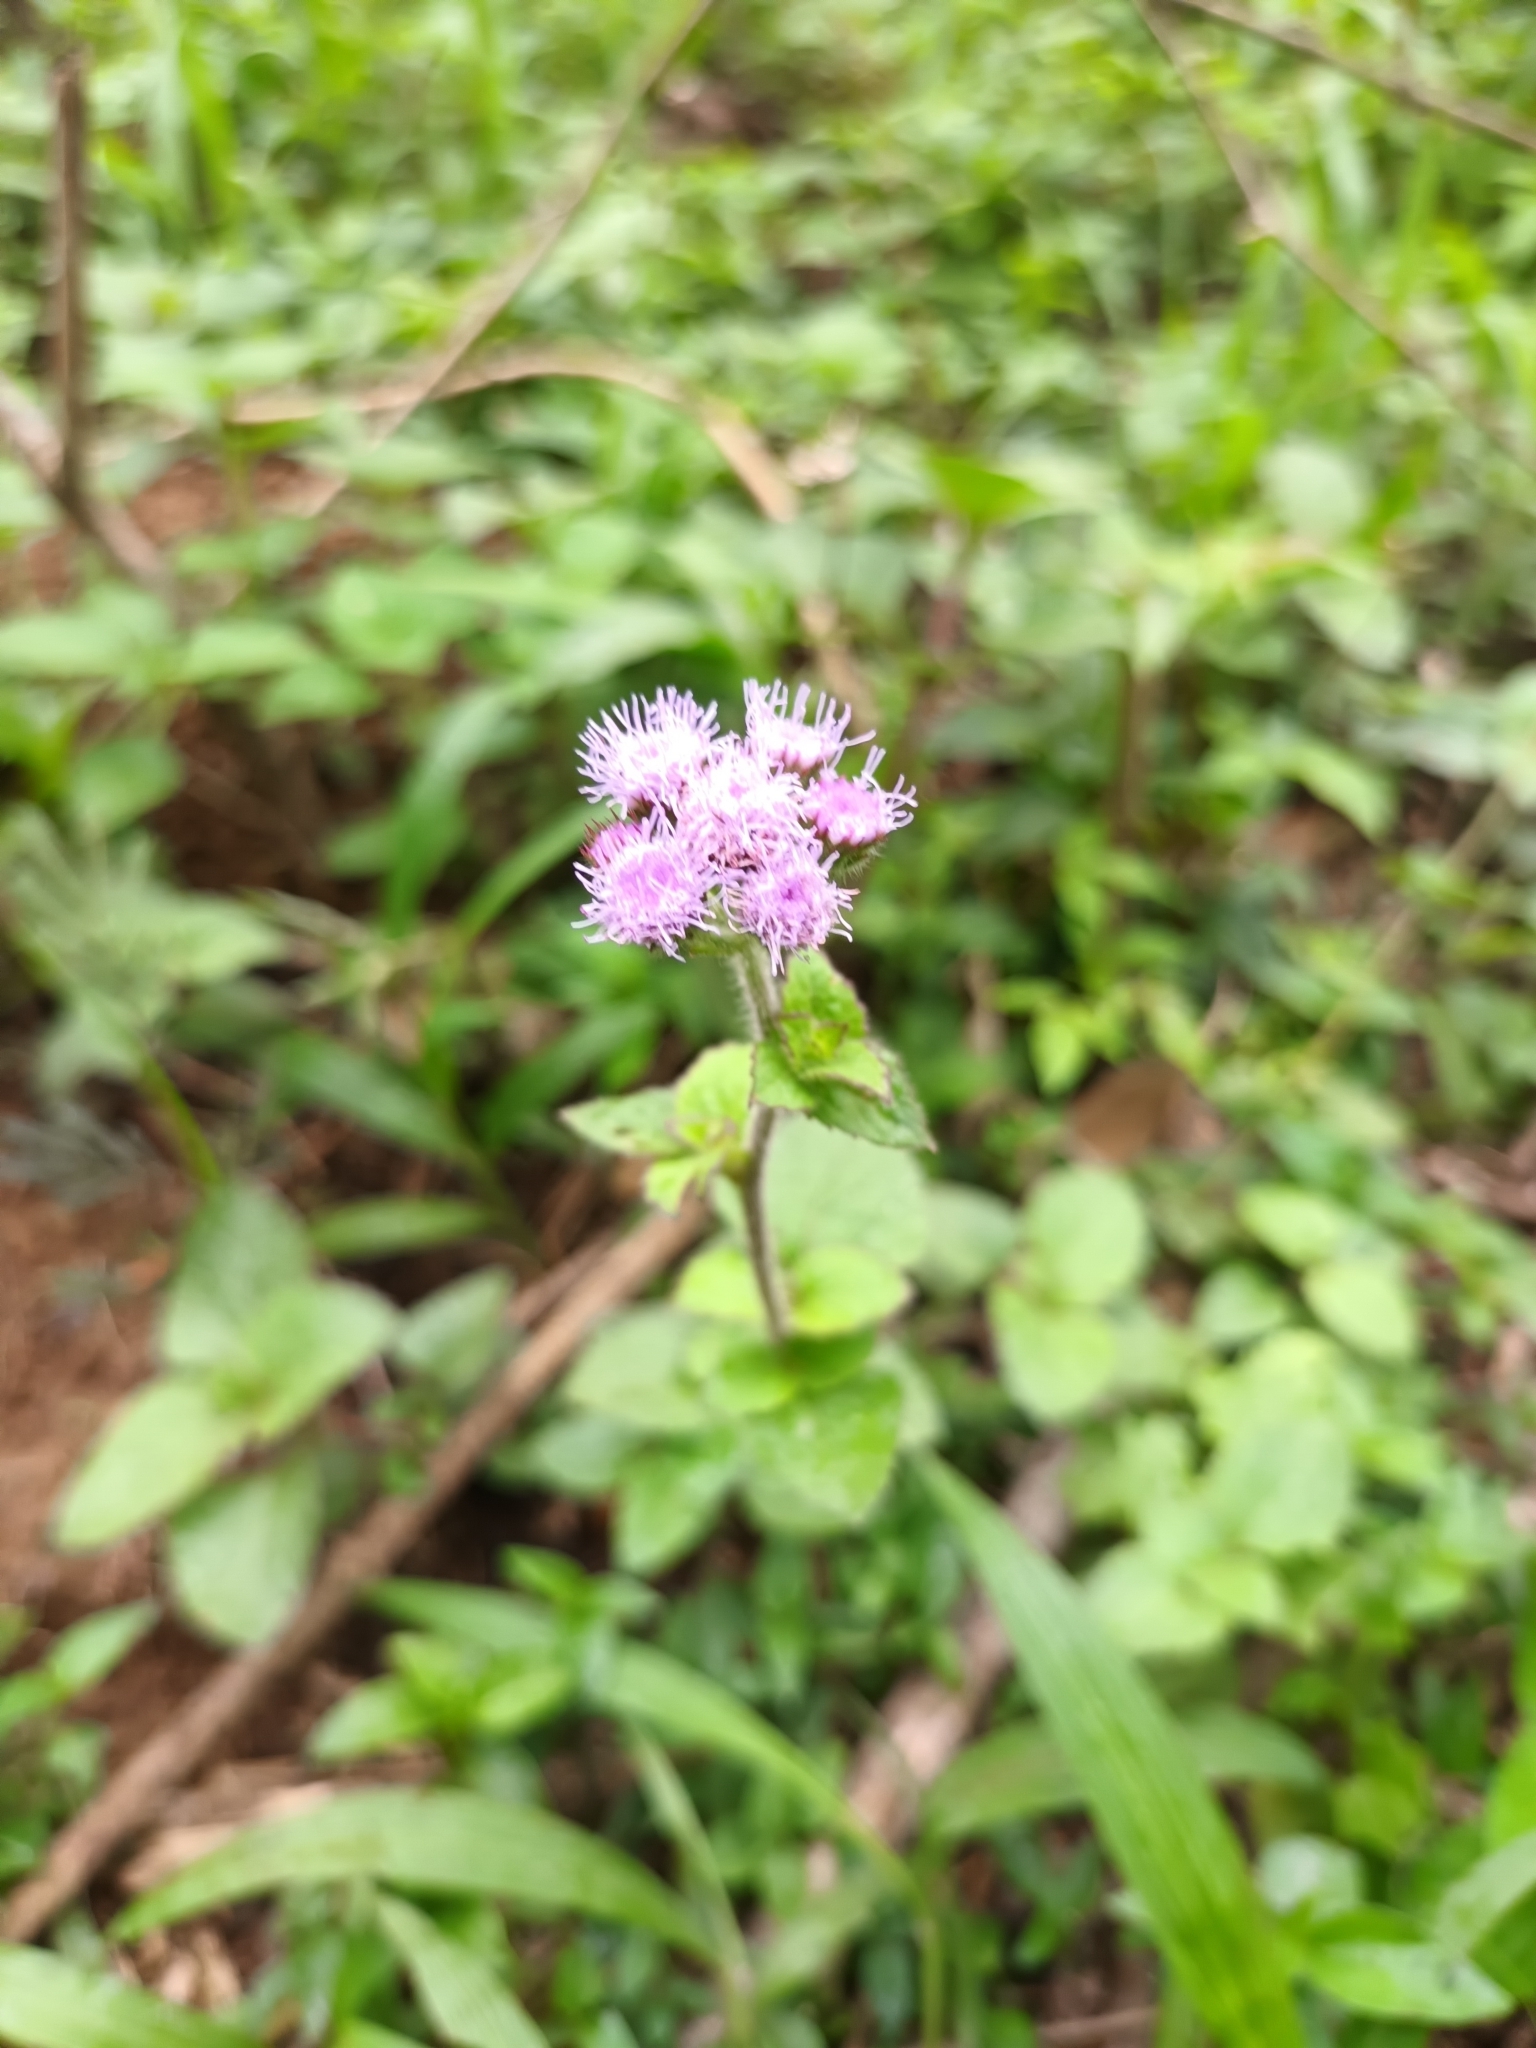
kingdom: Plantae
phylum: Tracheophyta
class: Magnoliopsida
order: Asterales
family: Asteraceae
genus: Ageratum
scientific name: Ageratum houstonianum
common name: Bluemink
